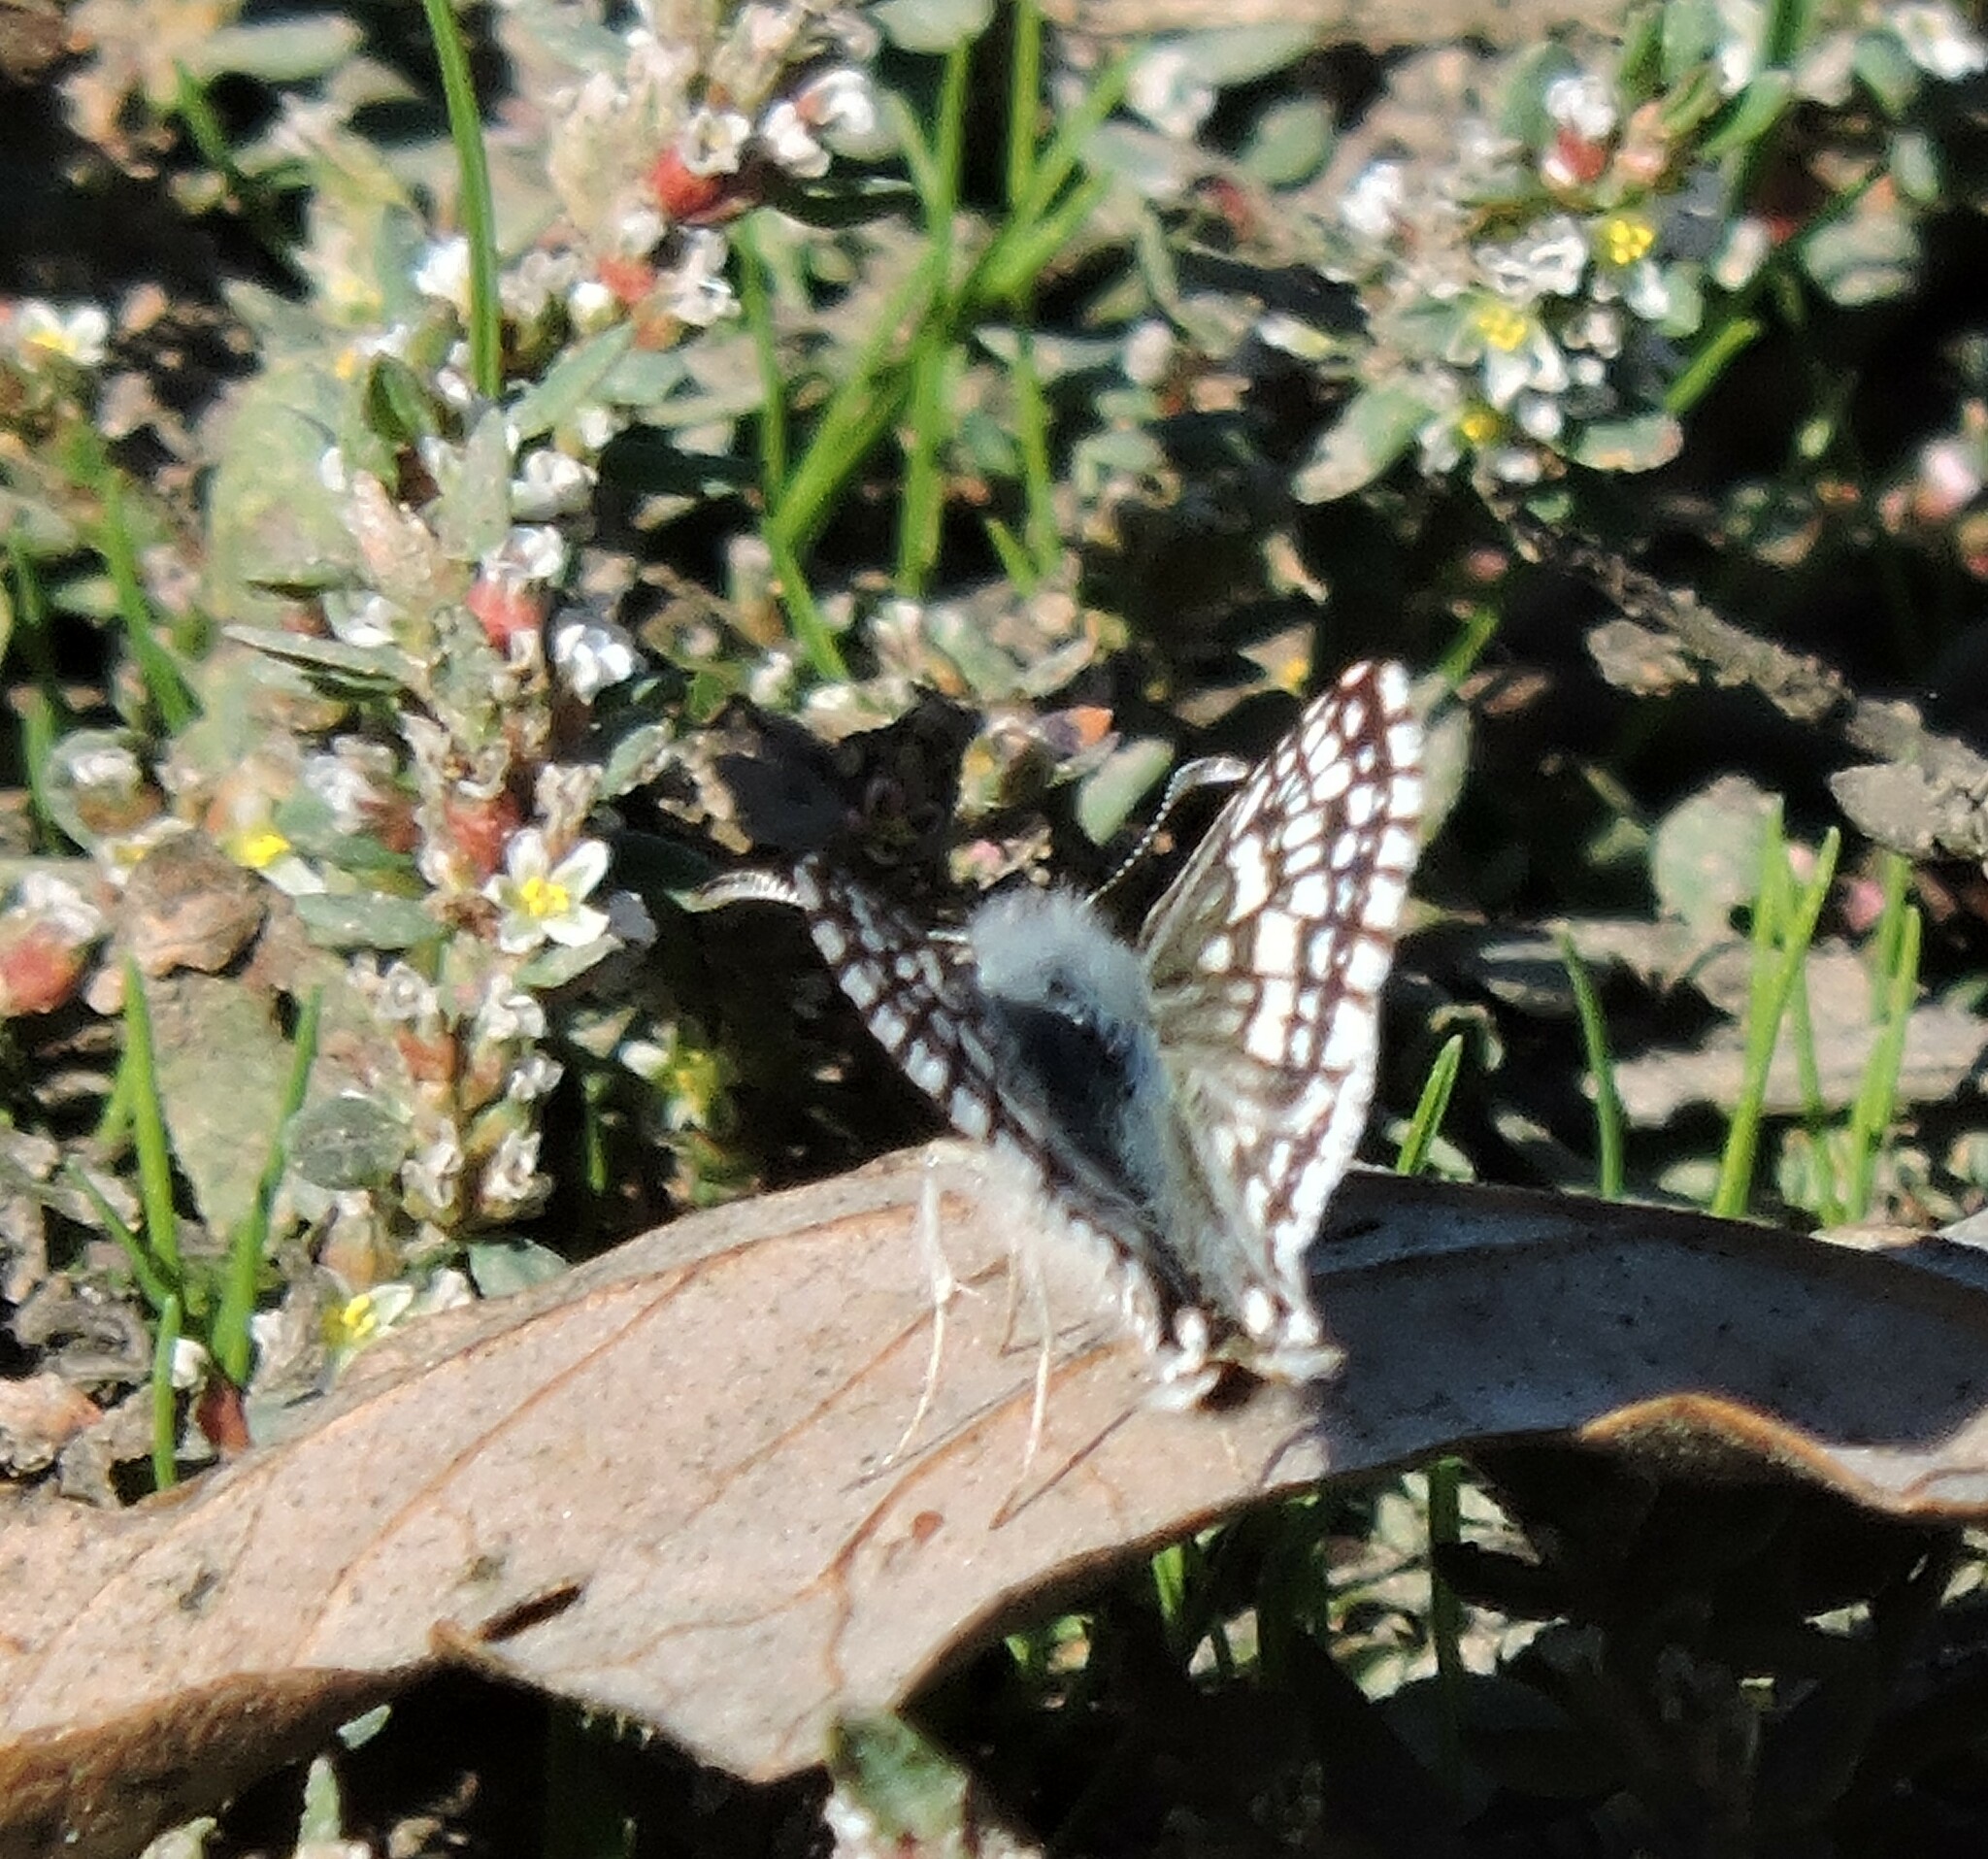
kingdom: Animalia
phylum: Arthropoda
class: Insecta
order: Lepidoptera
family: Hesperiidae
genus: Burnsius
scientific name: Burnsius communis
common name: Common checkered-skipper
